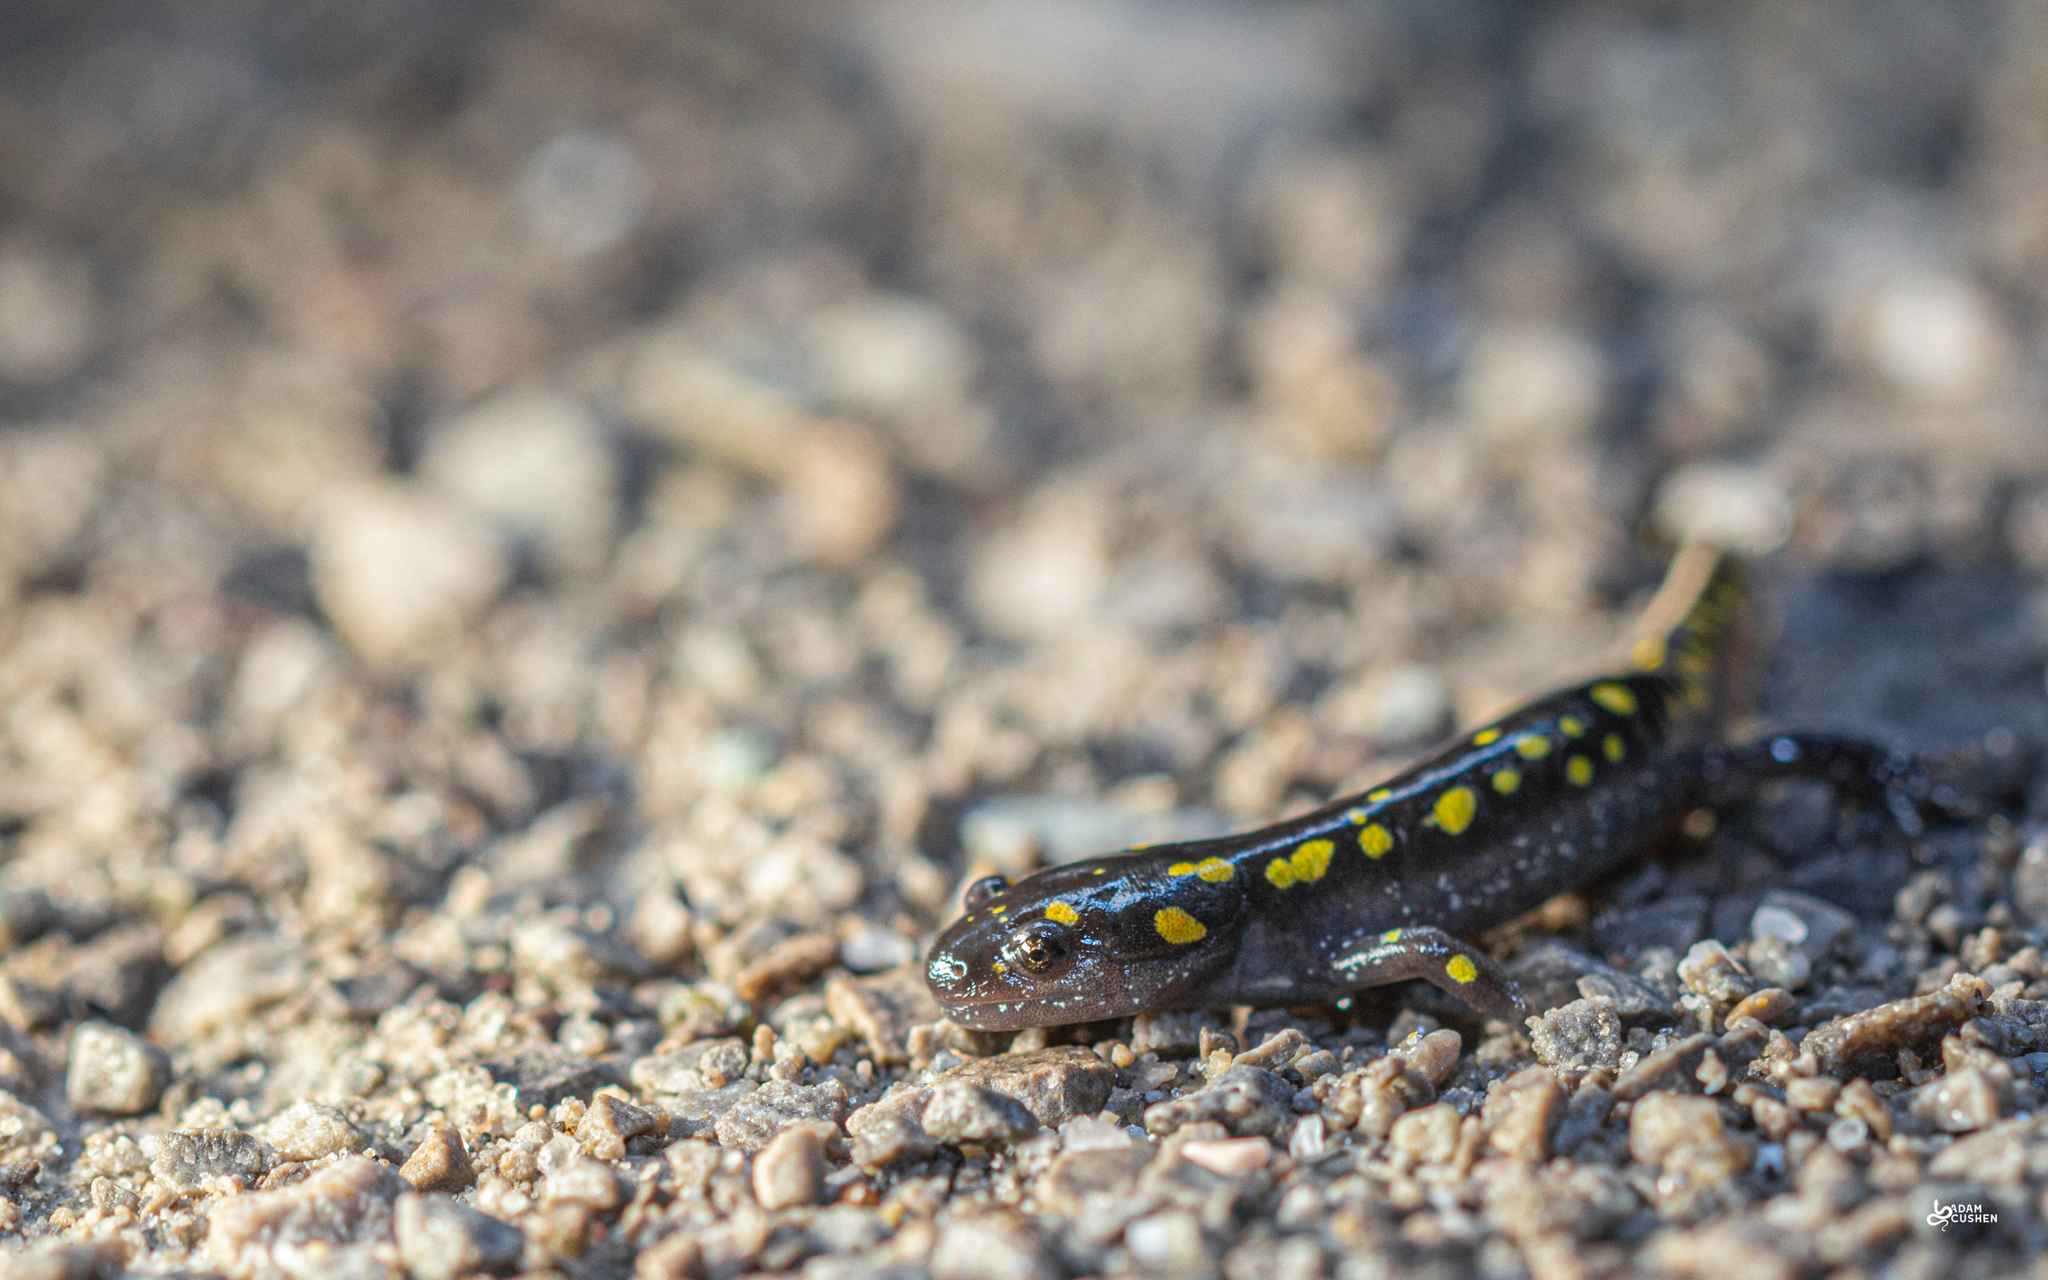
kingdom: Animalia
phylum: Chordata
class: Amphibia
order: Caudata
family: Ambystomatidae
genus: Ambystoma
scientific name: Ambystoma maculatum
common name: Spotted salamander
